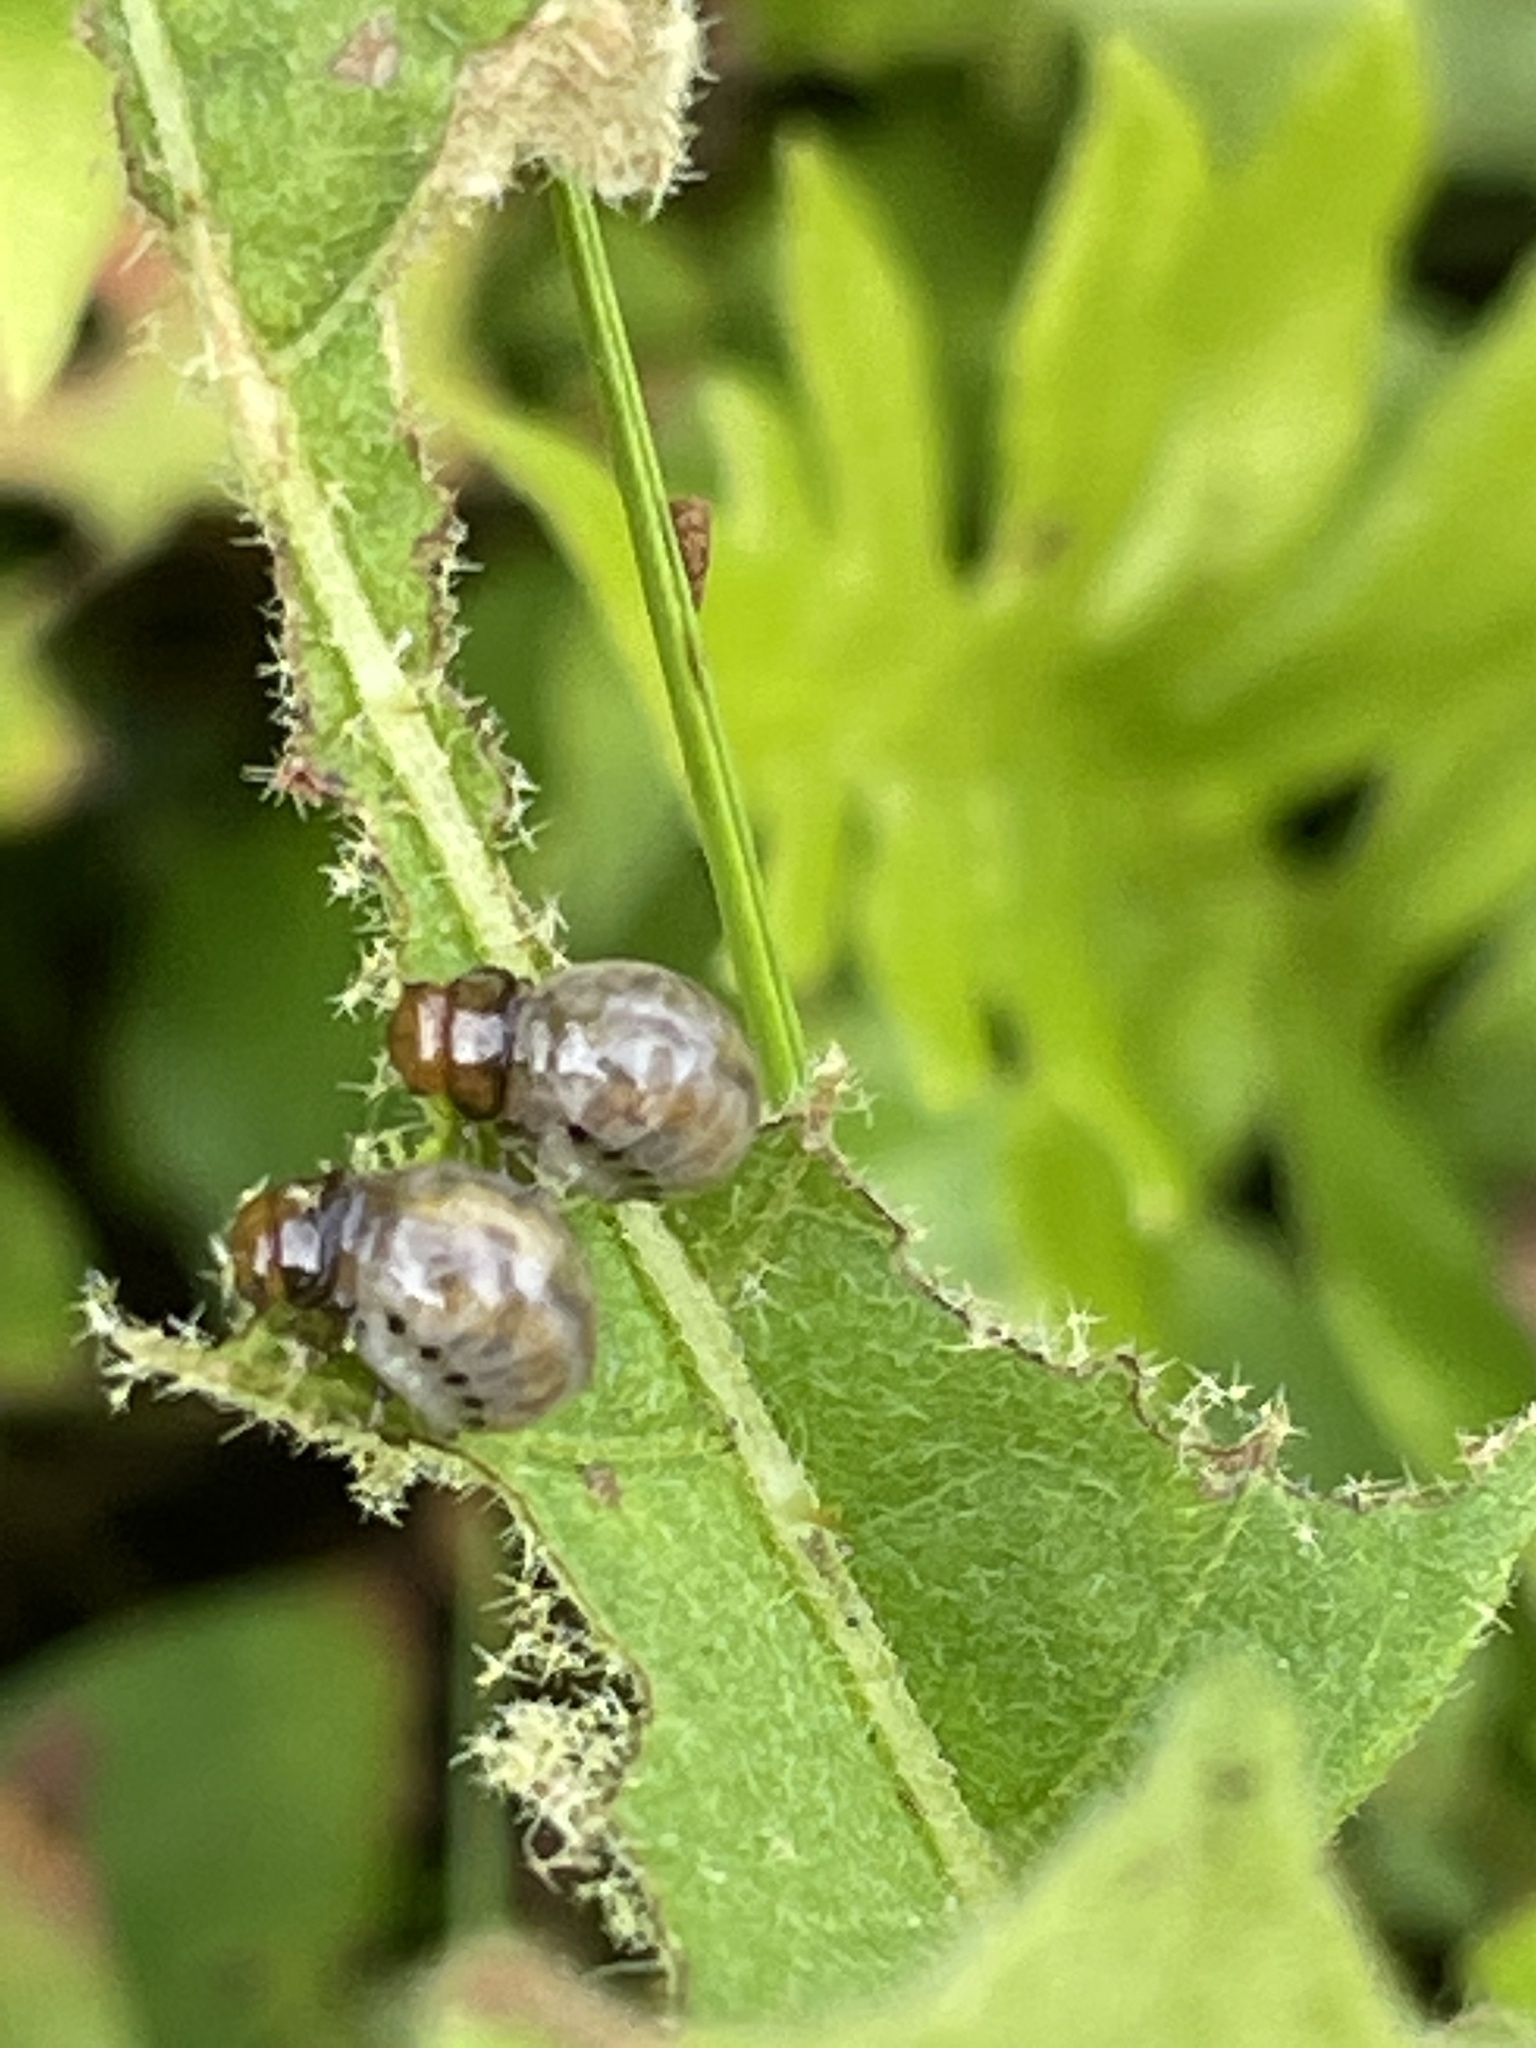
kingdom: Animalia
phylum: Arthropoda
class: Insecta
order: Coleoptera
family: Chrysomelidae
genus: Leptinotarsa
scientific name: Leptinotarsa juncta
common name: False potato beetle
